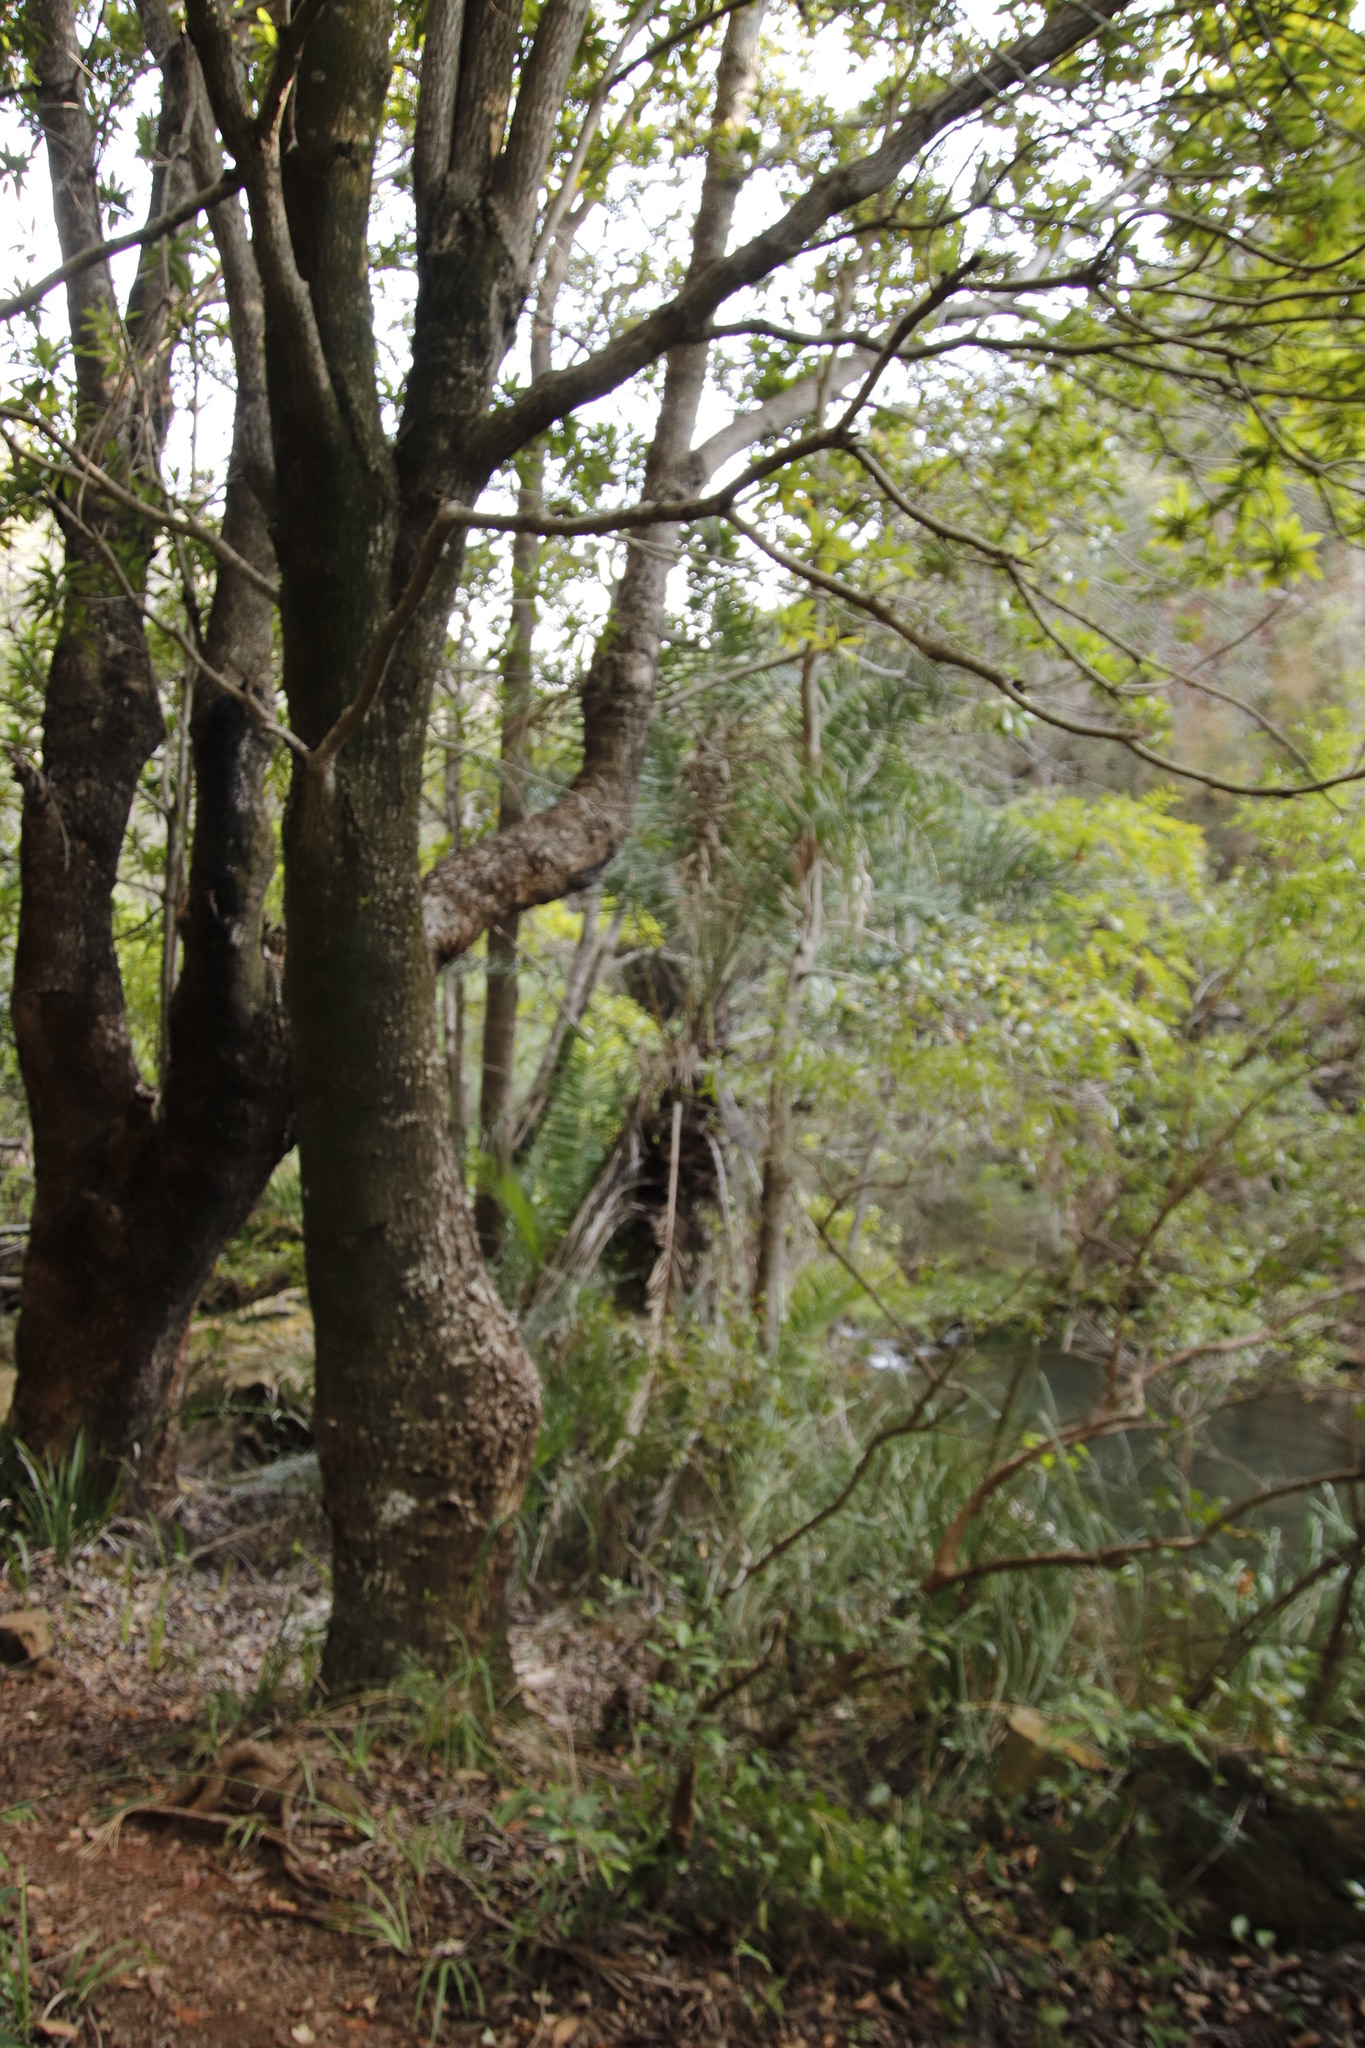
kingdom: Plantae
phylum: Tracheophyta
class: Liliopsida
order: Arecales
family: Arecaceae
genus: Phoenix
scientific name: Phoenix reclinata
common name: Senegal date palm
